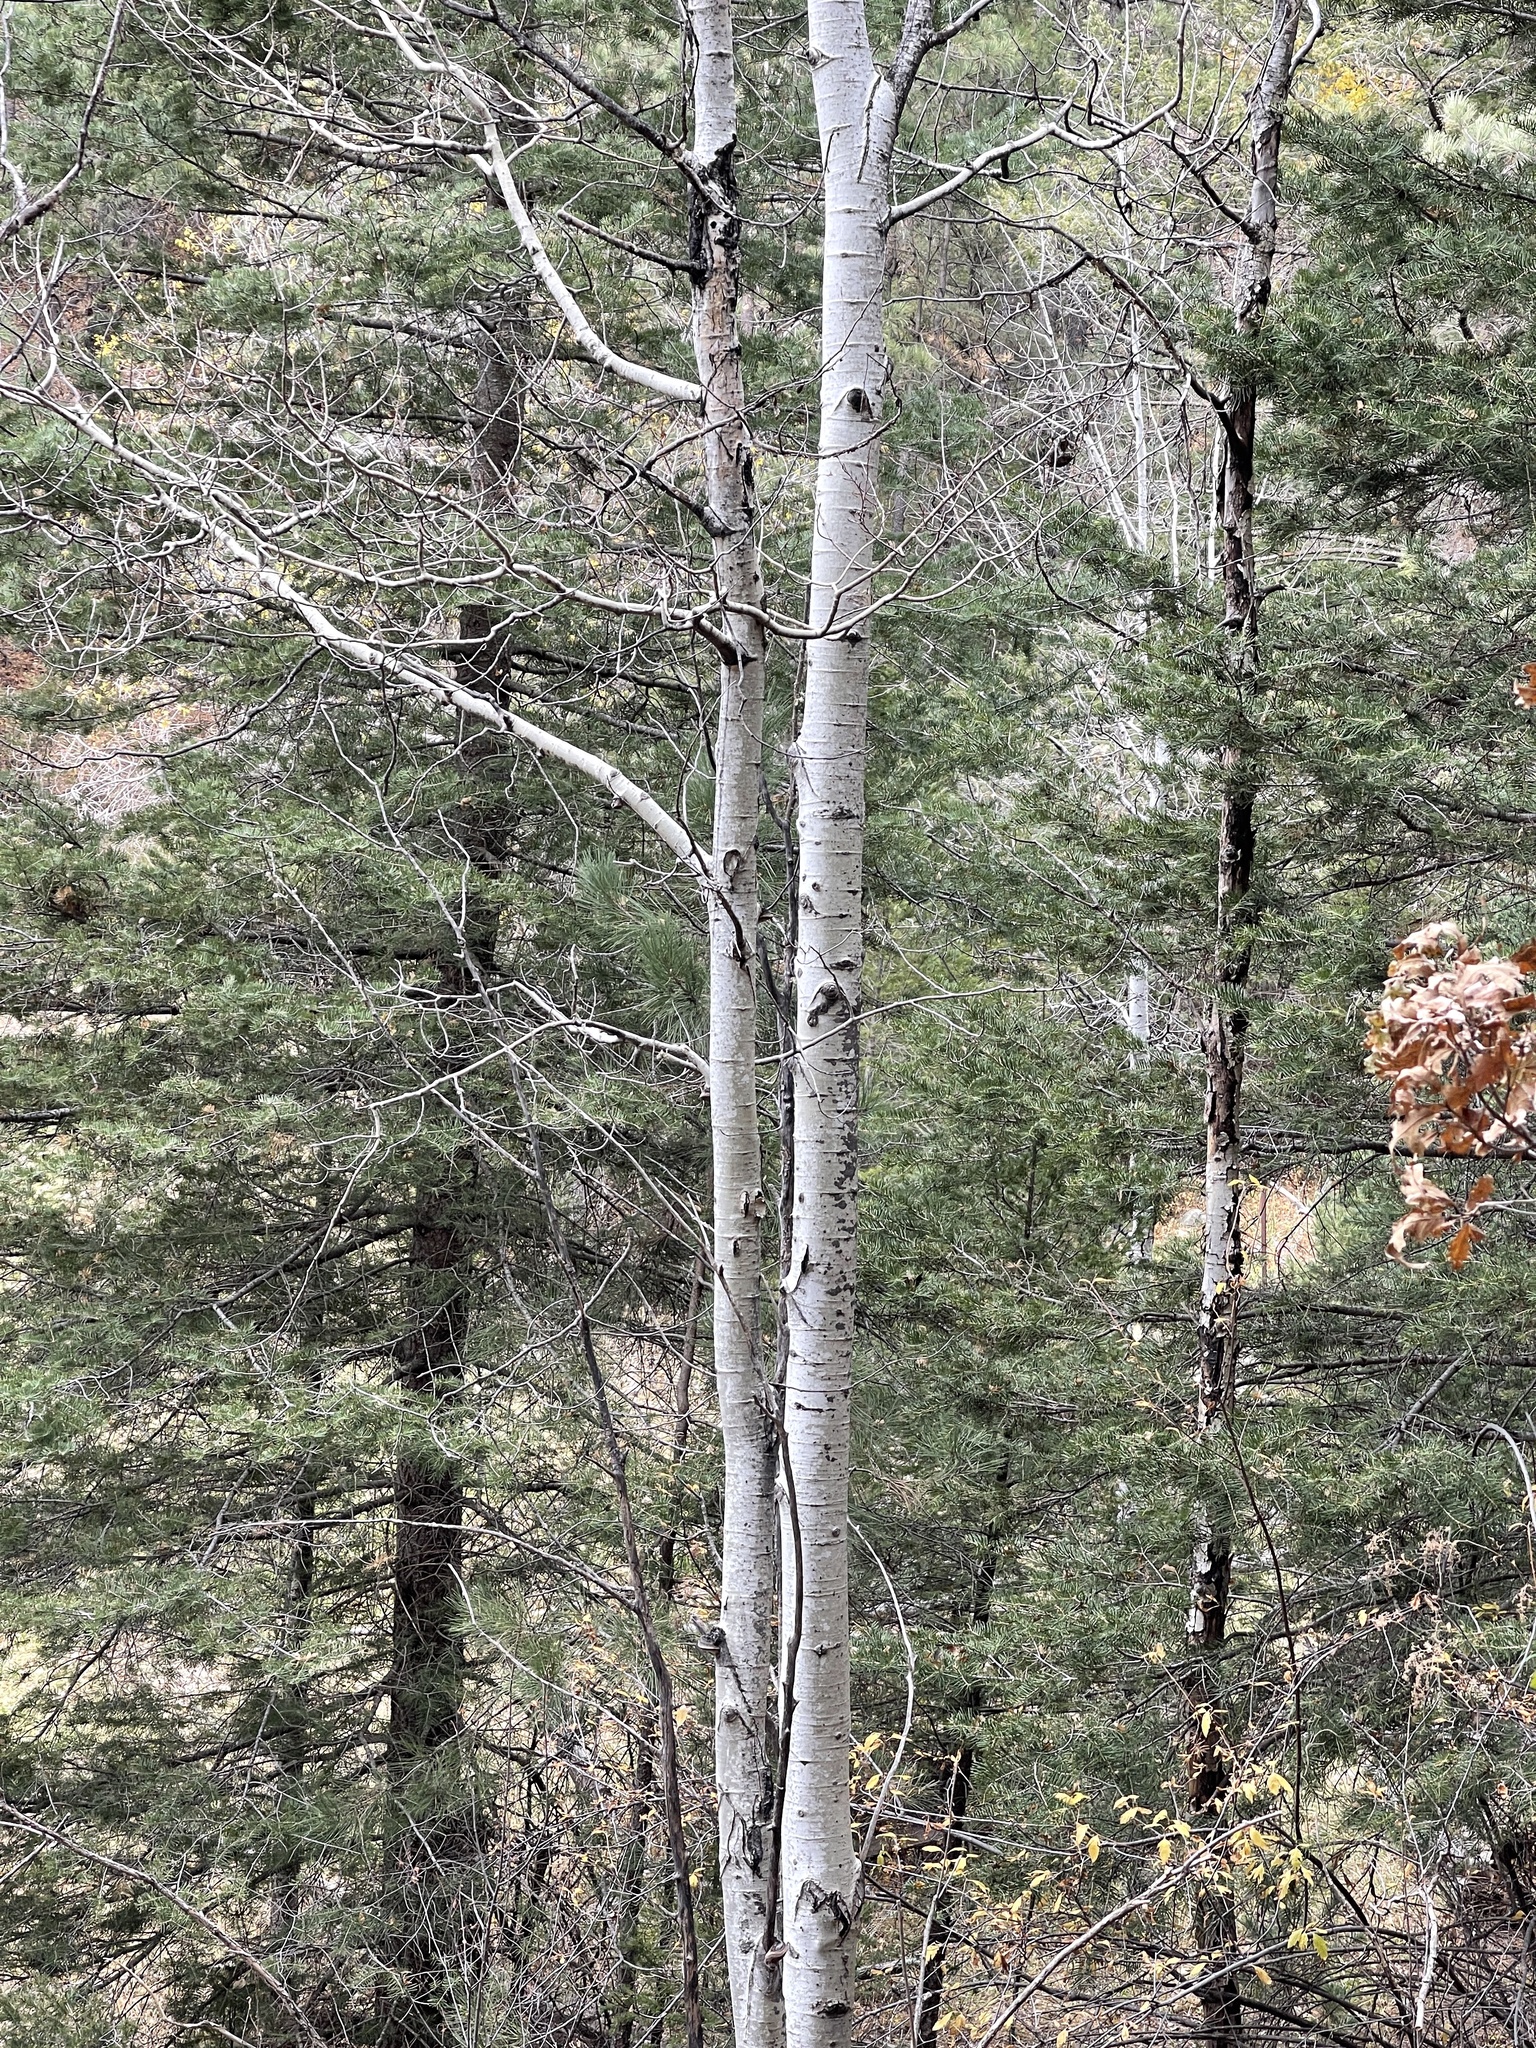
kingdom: Plantae
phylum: Tracheophyta
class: Magnoliopsida
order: Malpighiales
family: Salicaceae
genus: Populus
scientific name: Populus tremuloides
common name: Quaking aspen
